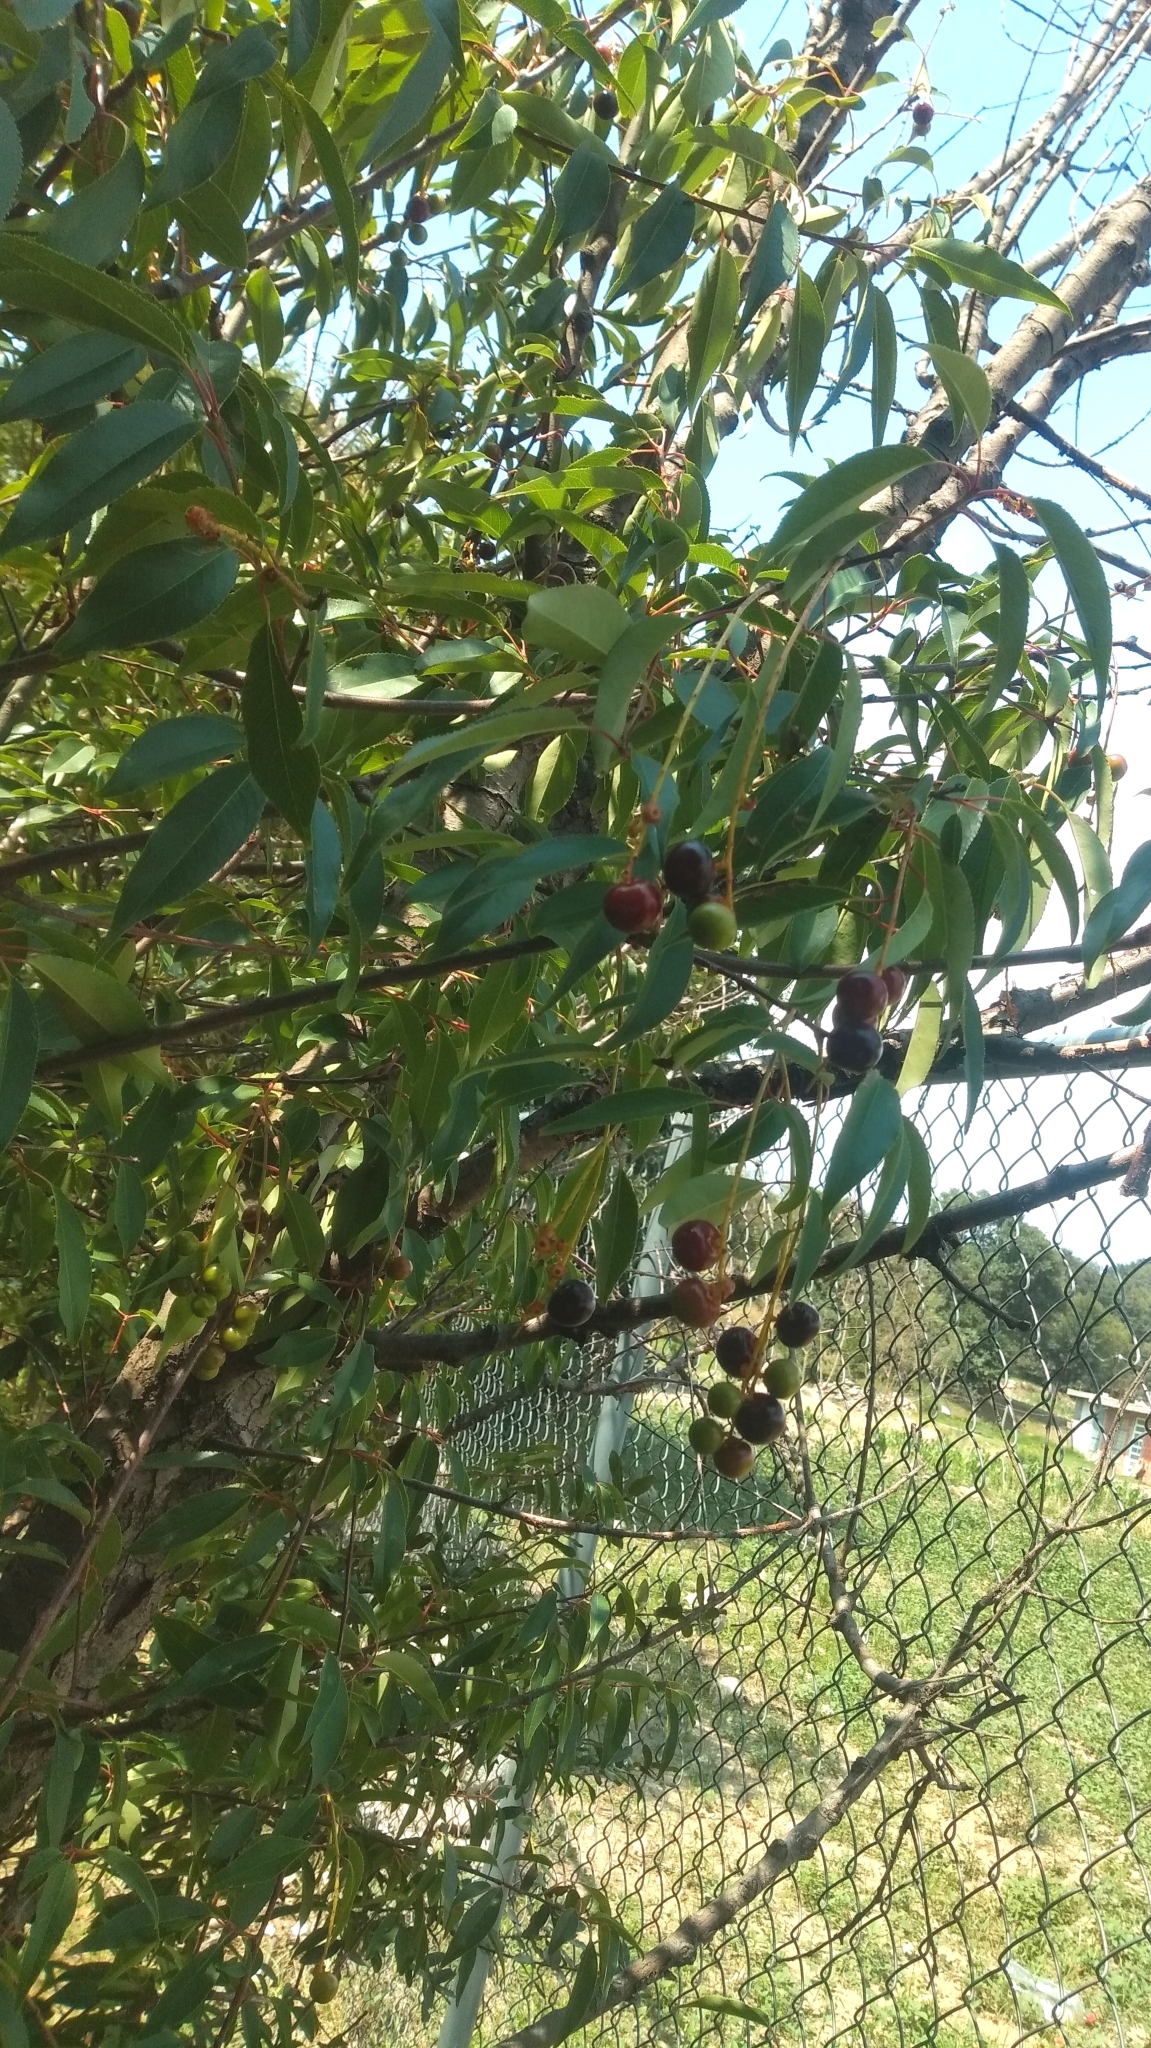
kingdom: Plantae
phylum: Tracheophyta
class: Magnoliopsida
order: Rosales
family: Rosaceae
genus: Prunus
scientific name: Prunus serotina
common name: Black cherry
